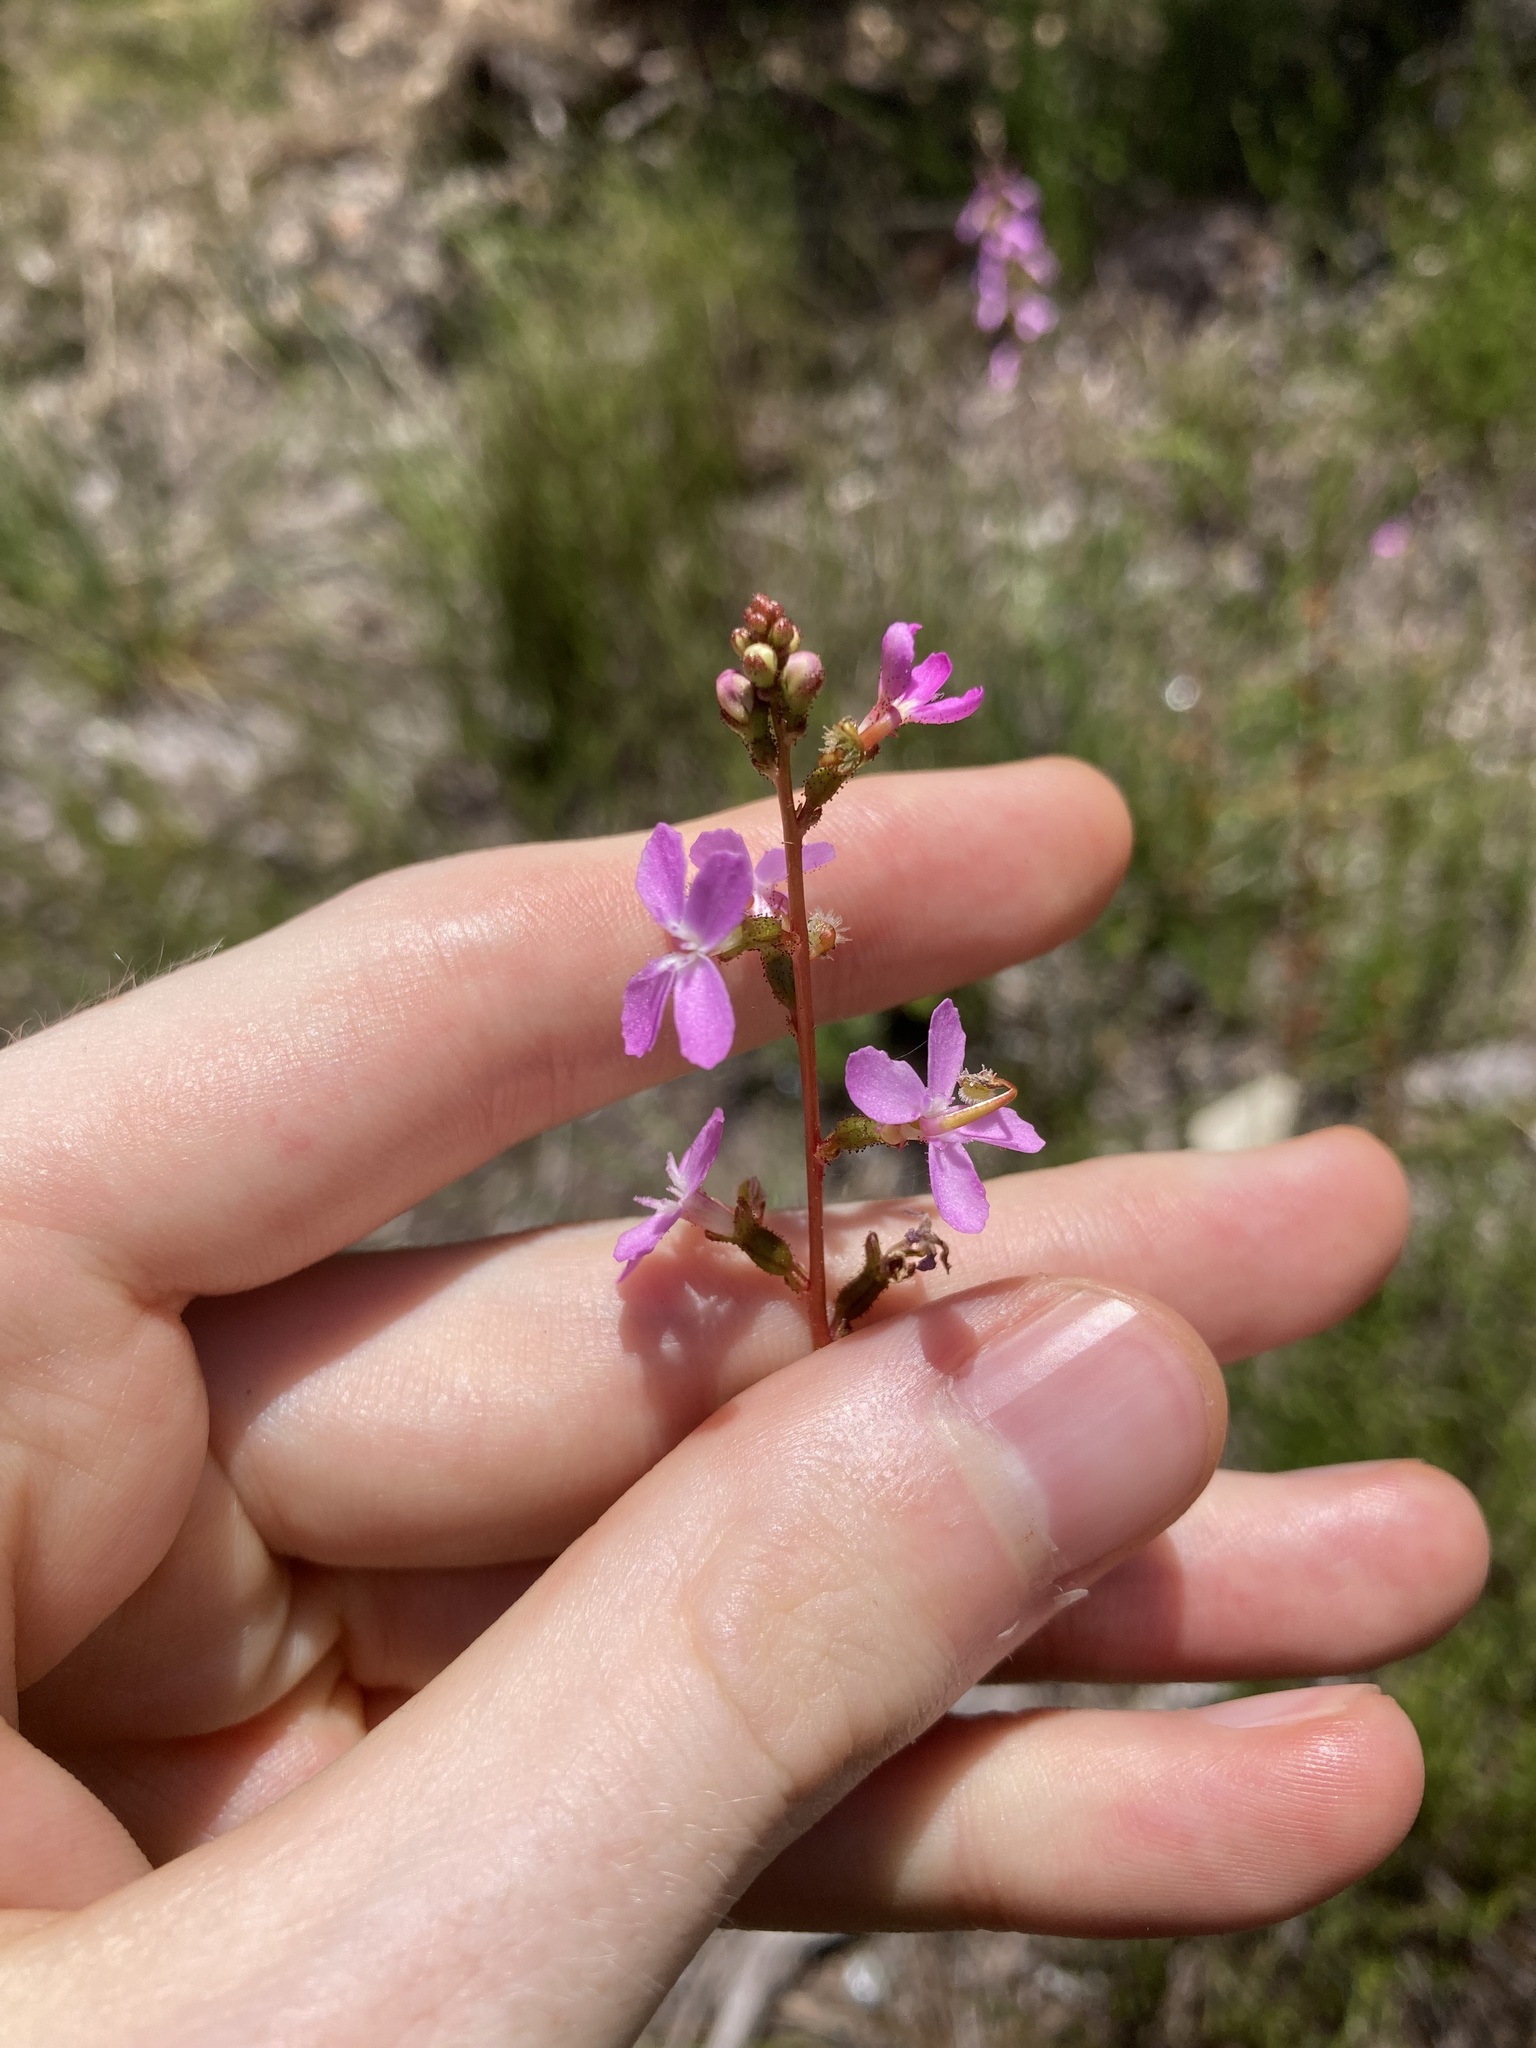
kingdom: Plantae
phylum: Tracheophyta
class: Magnoliopsida
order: Asterales
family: Stylidiaceae
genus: Stylidium
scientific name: Stylidium graminifolium
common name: Grass triggerplant
